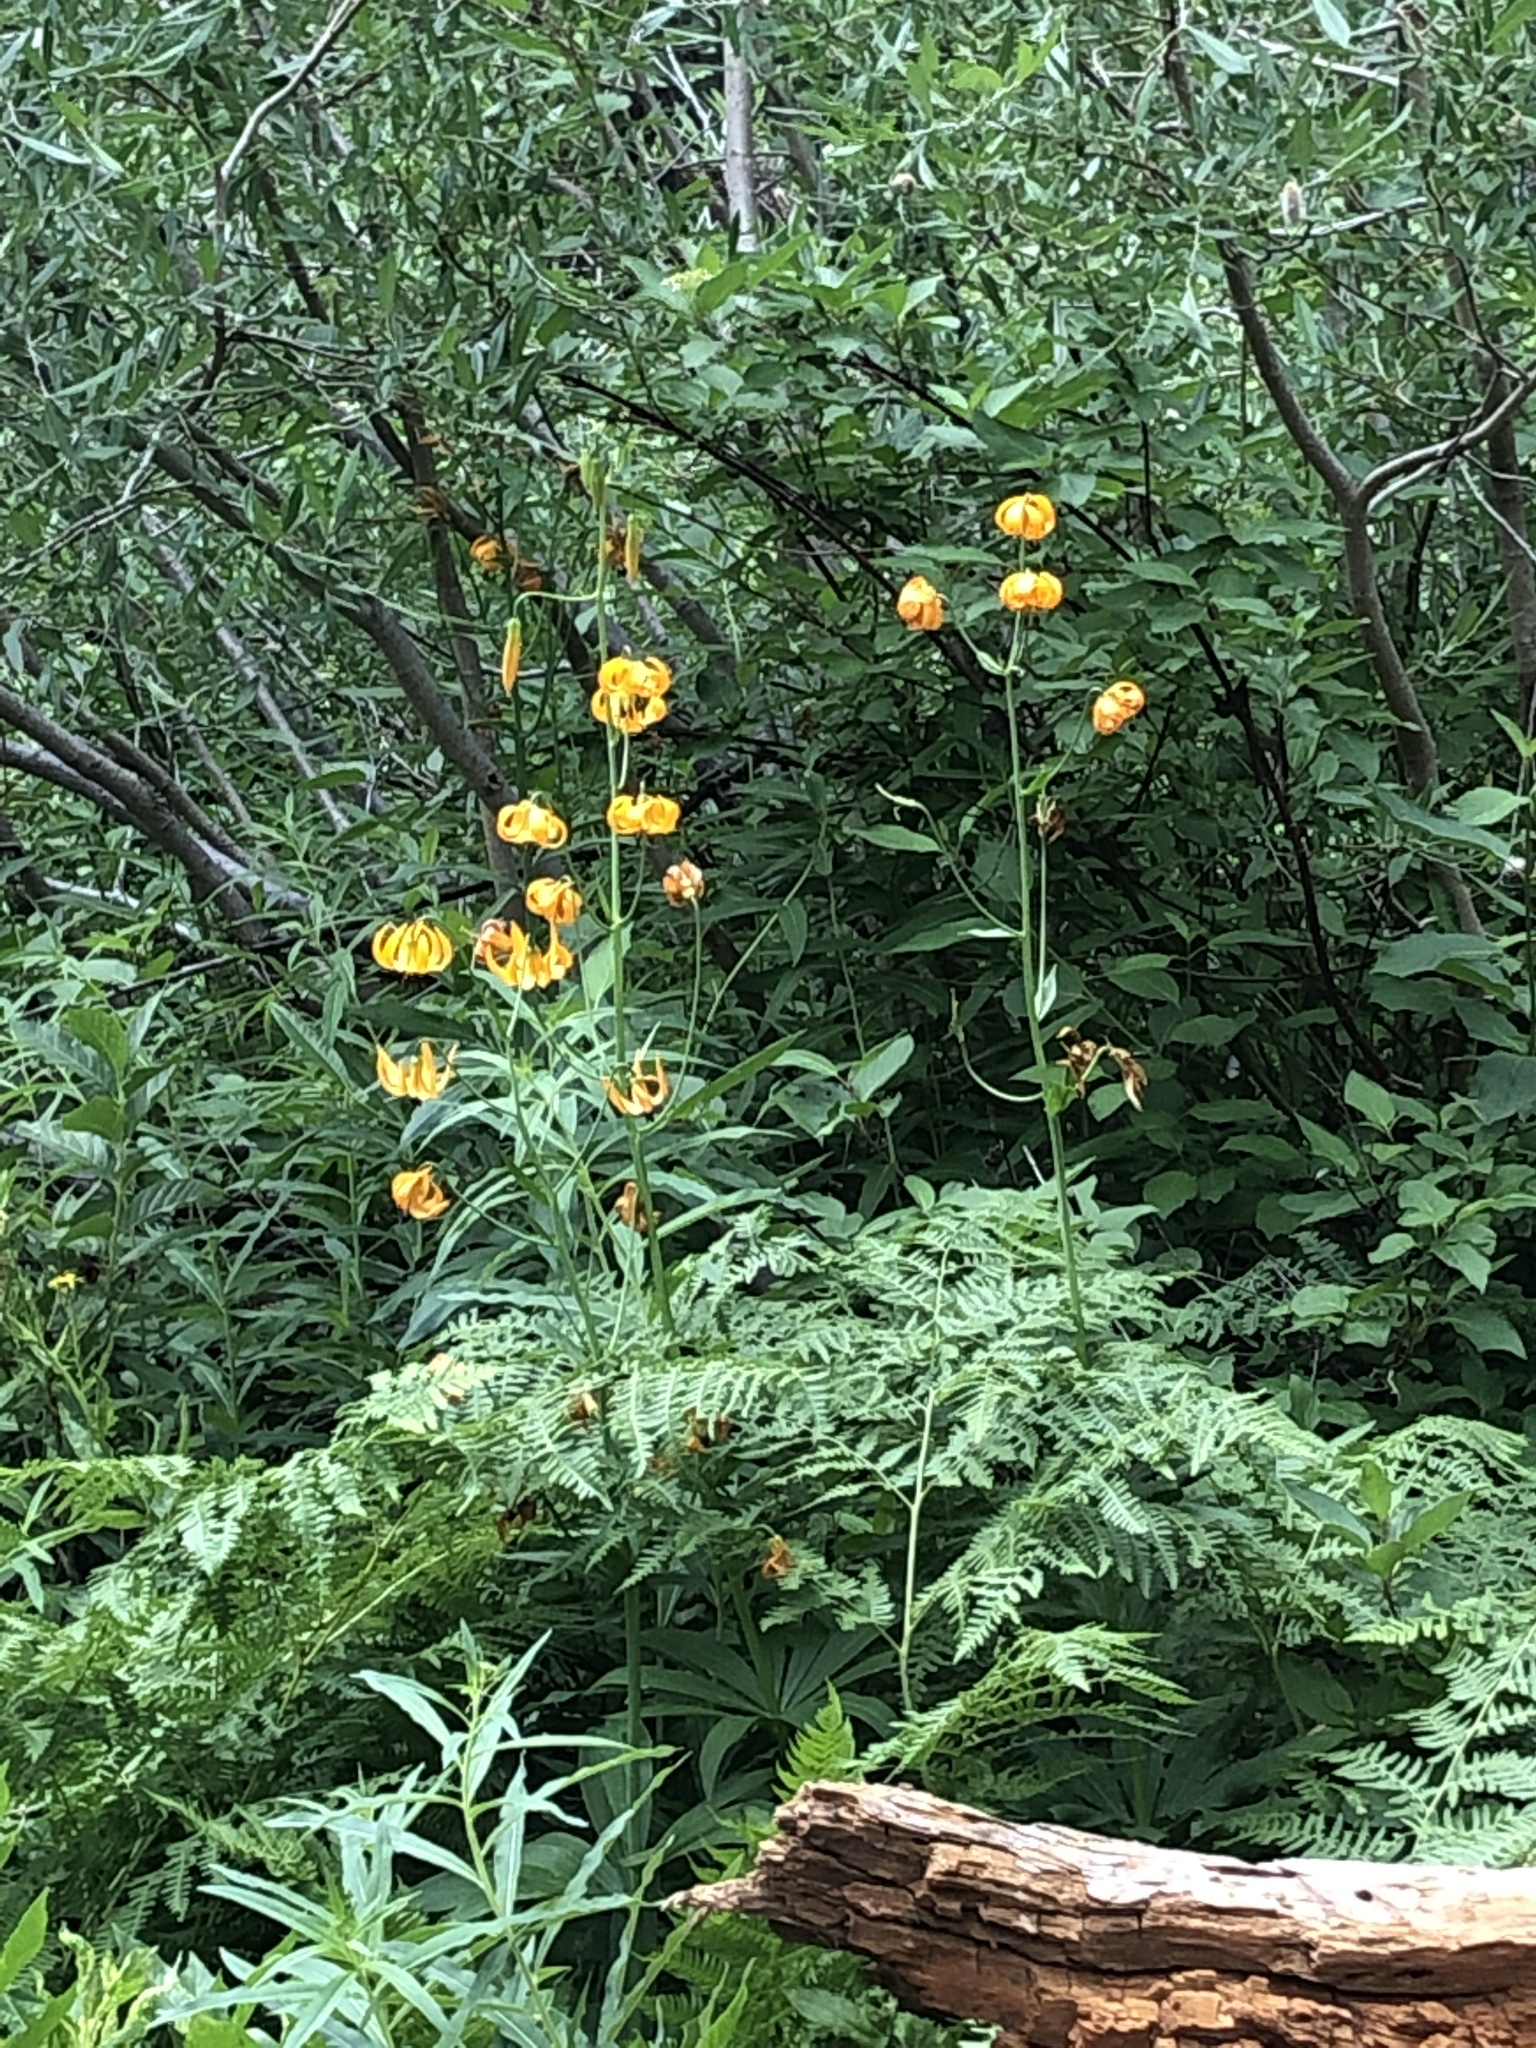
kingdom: Plantae
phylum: Tracheophyta
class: Liliopsida
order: Liliales
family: Liliaceae
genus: Lilium
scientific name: Lilium kelleyanum
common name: Kelley's lily
